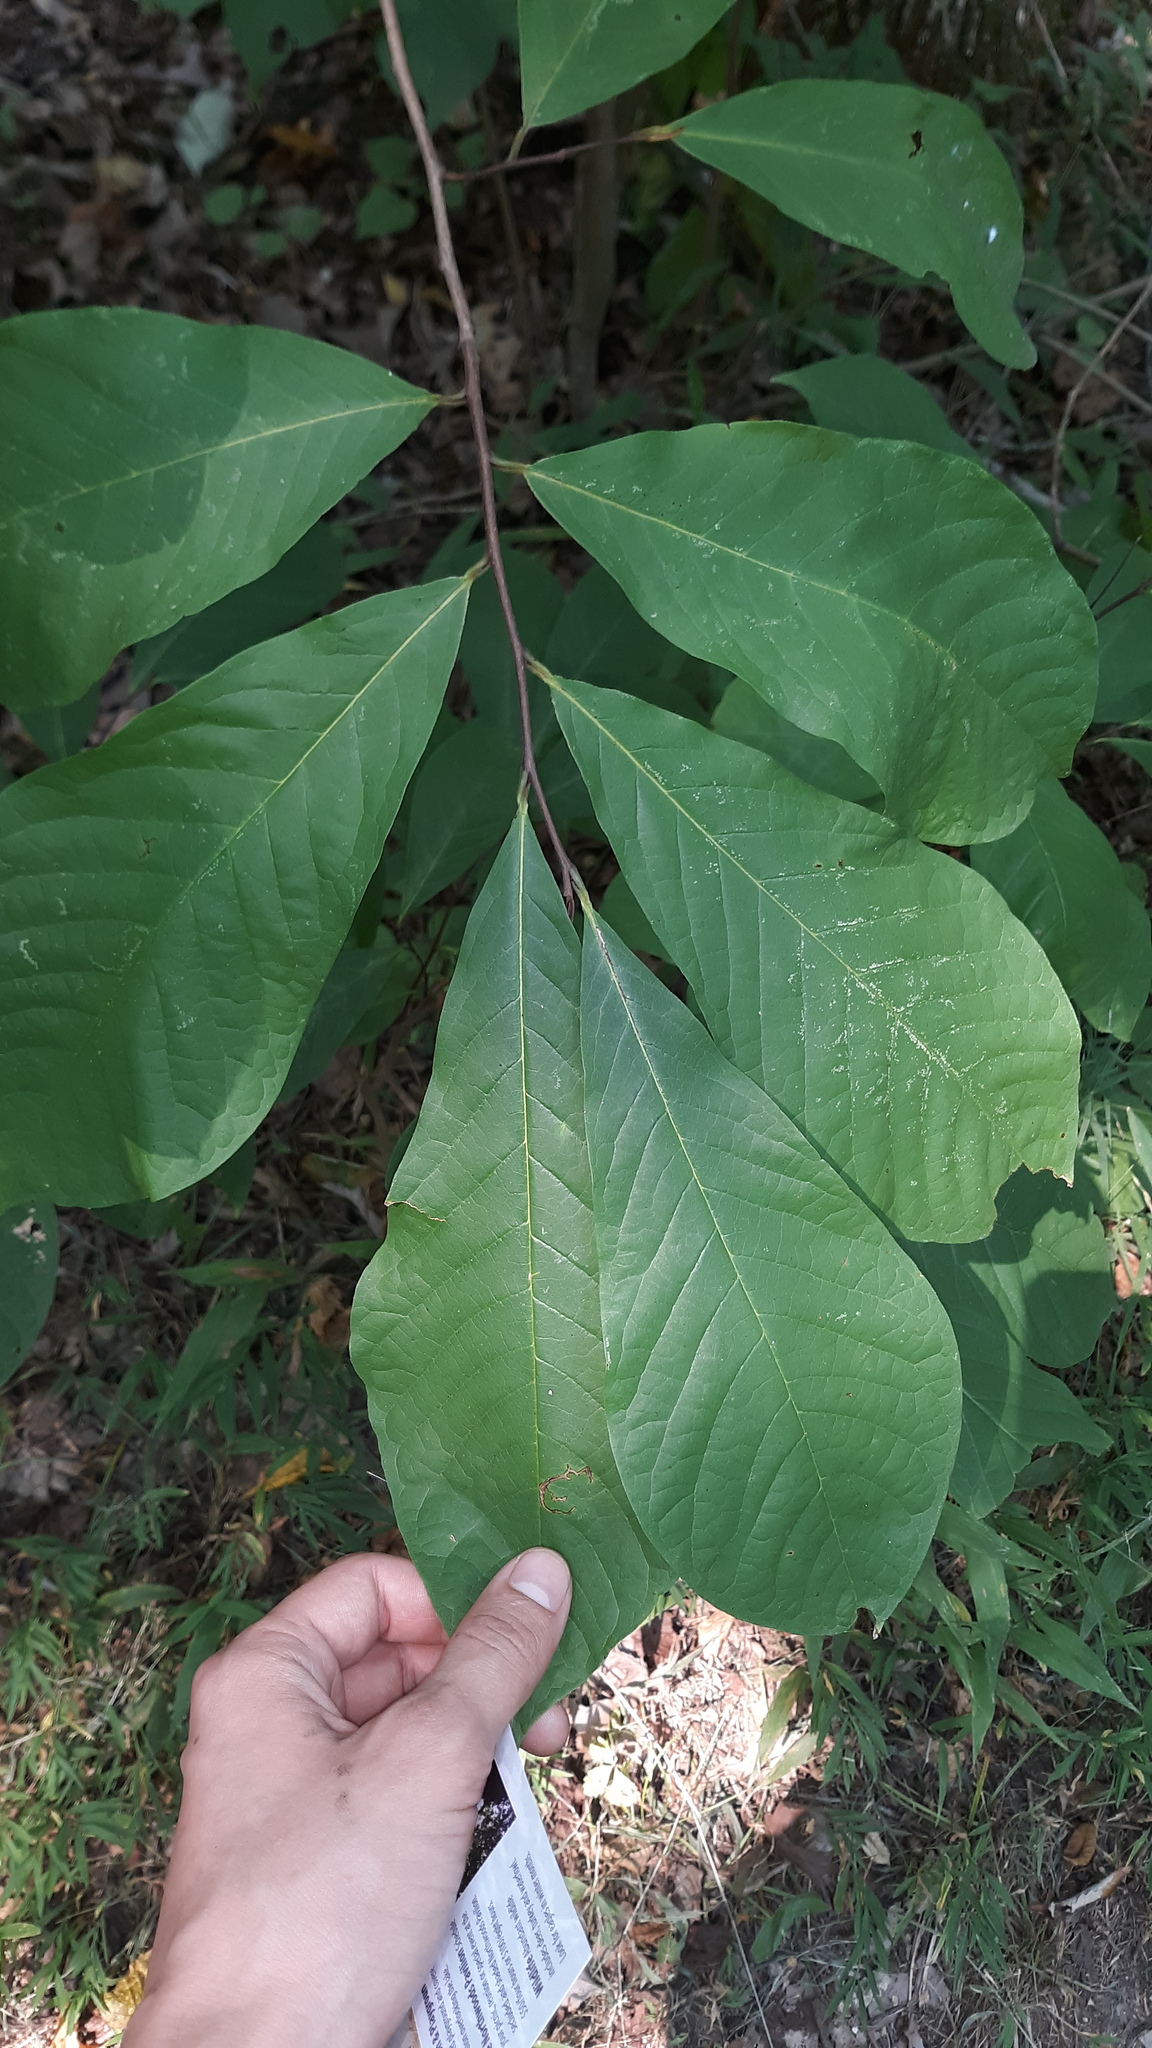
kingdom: Plantae
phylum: Tracheophyta
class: Magnoliopsida
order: Magnoliales
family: Annonaceae
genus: Asimina
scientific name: Asimina triloba
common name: Dog-banana
